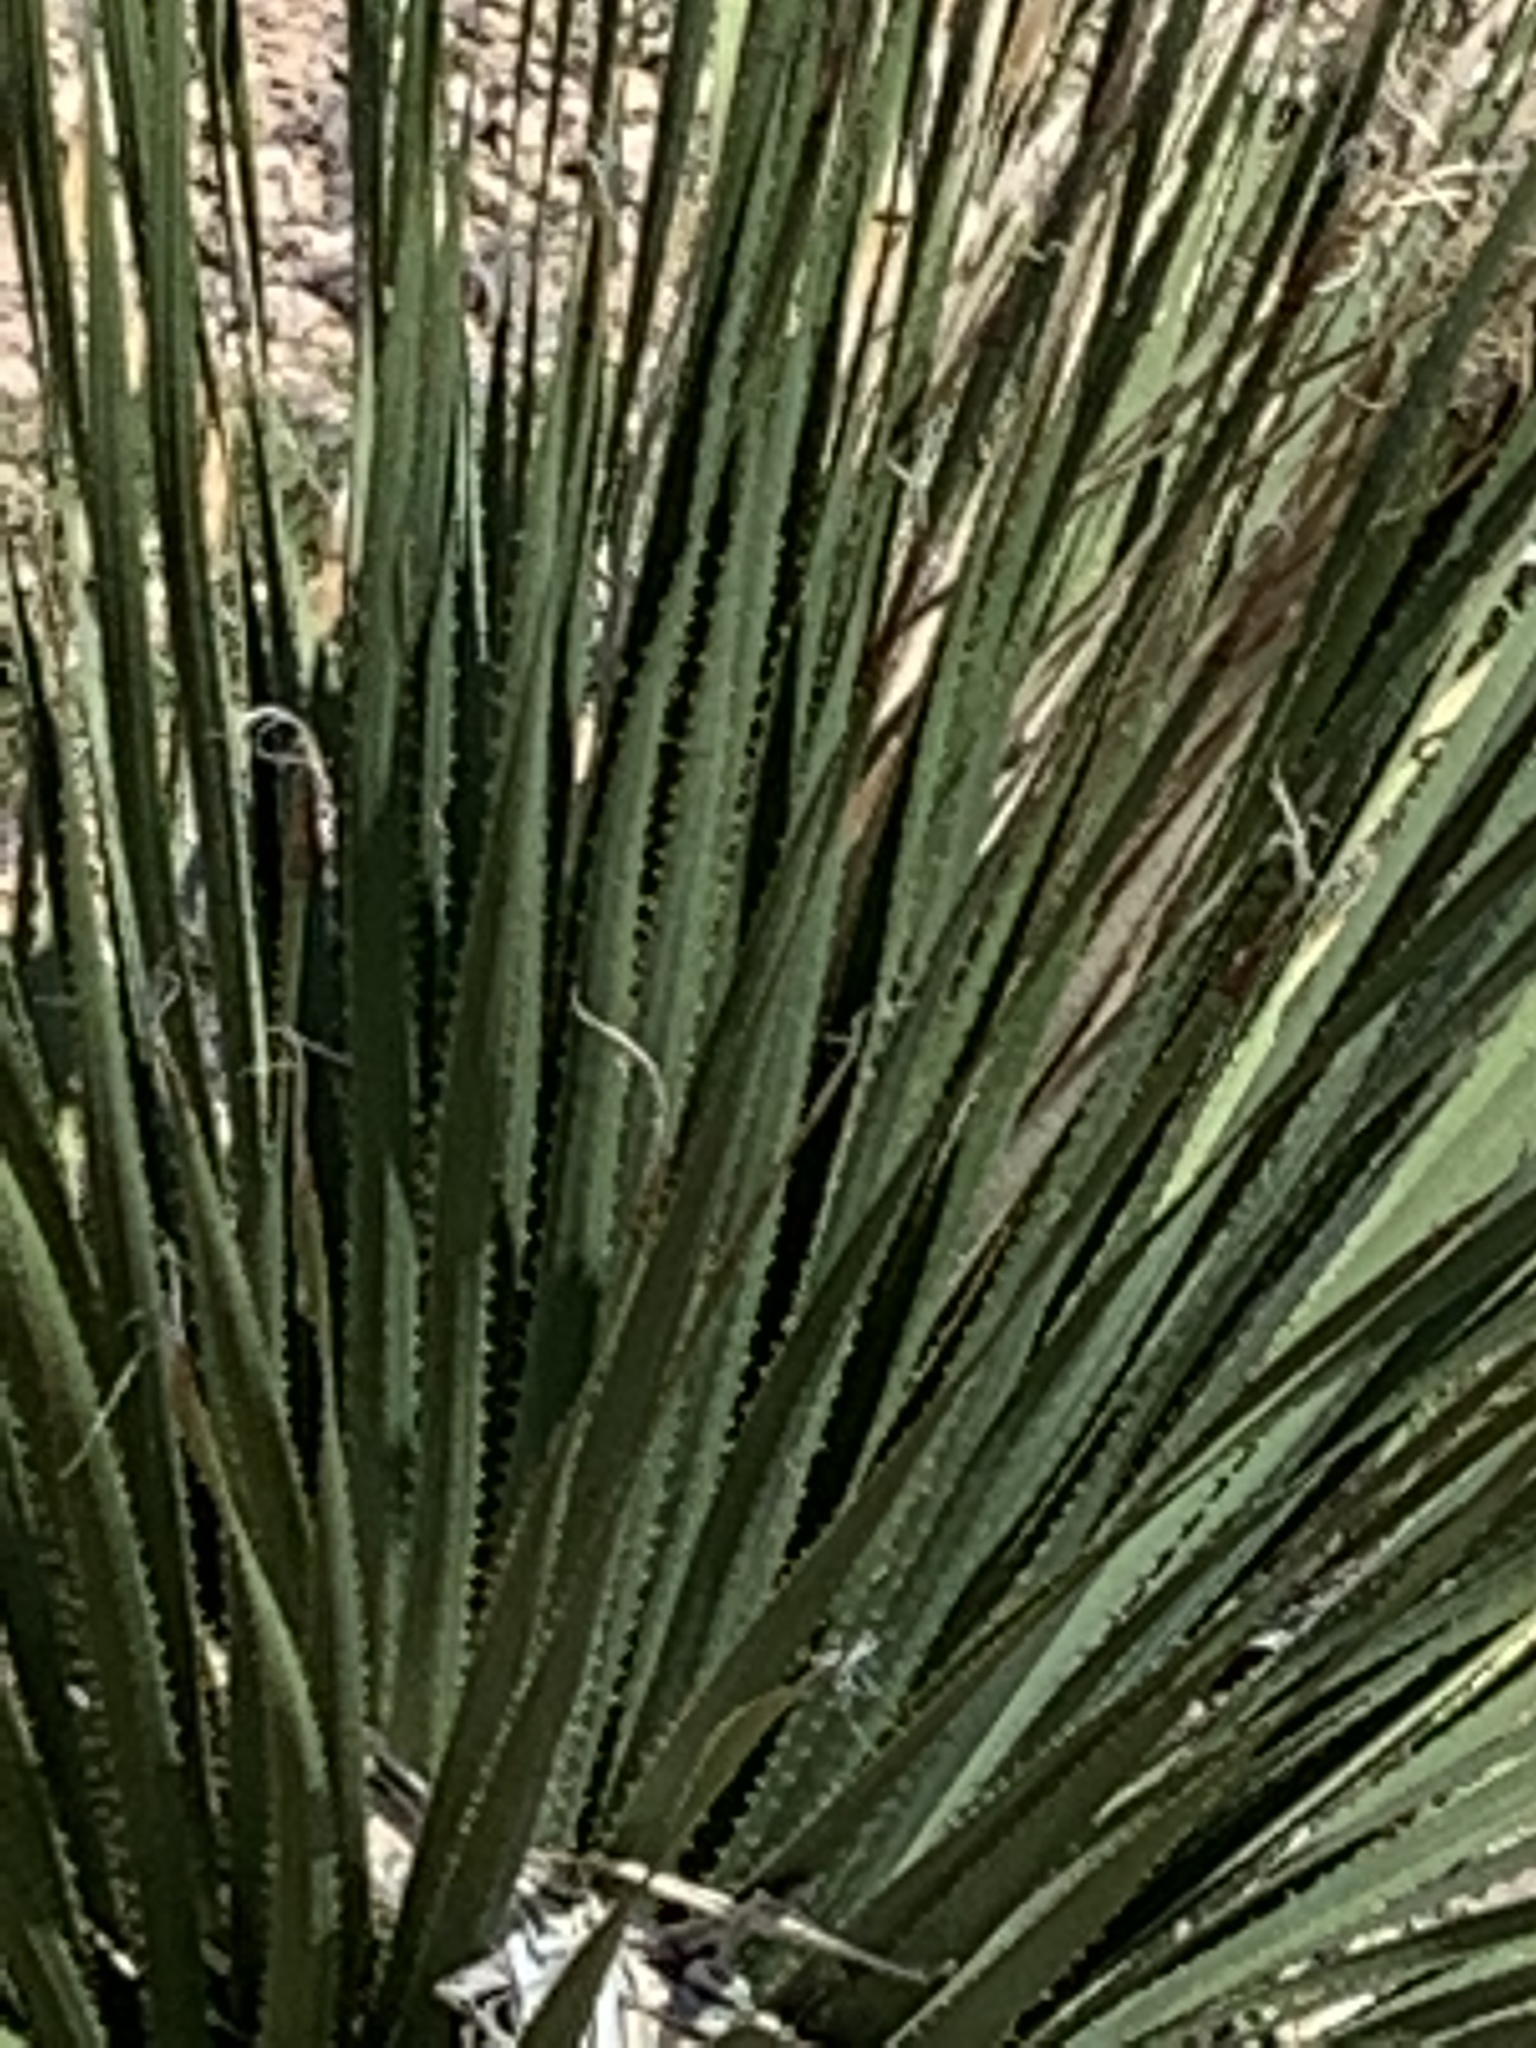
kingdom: Plantae
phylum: Tracheophyta
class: Liliopsida
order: Asparagales
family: Asparagaceae
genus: Dasylirion
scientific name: Dasylirion wheeleri
